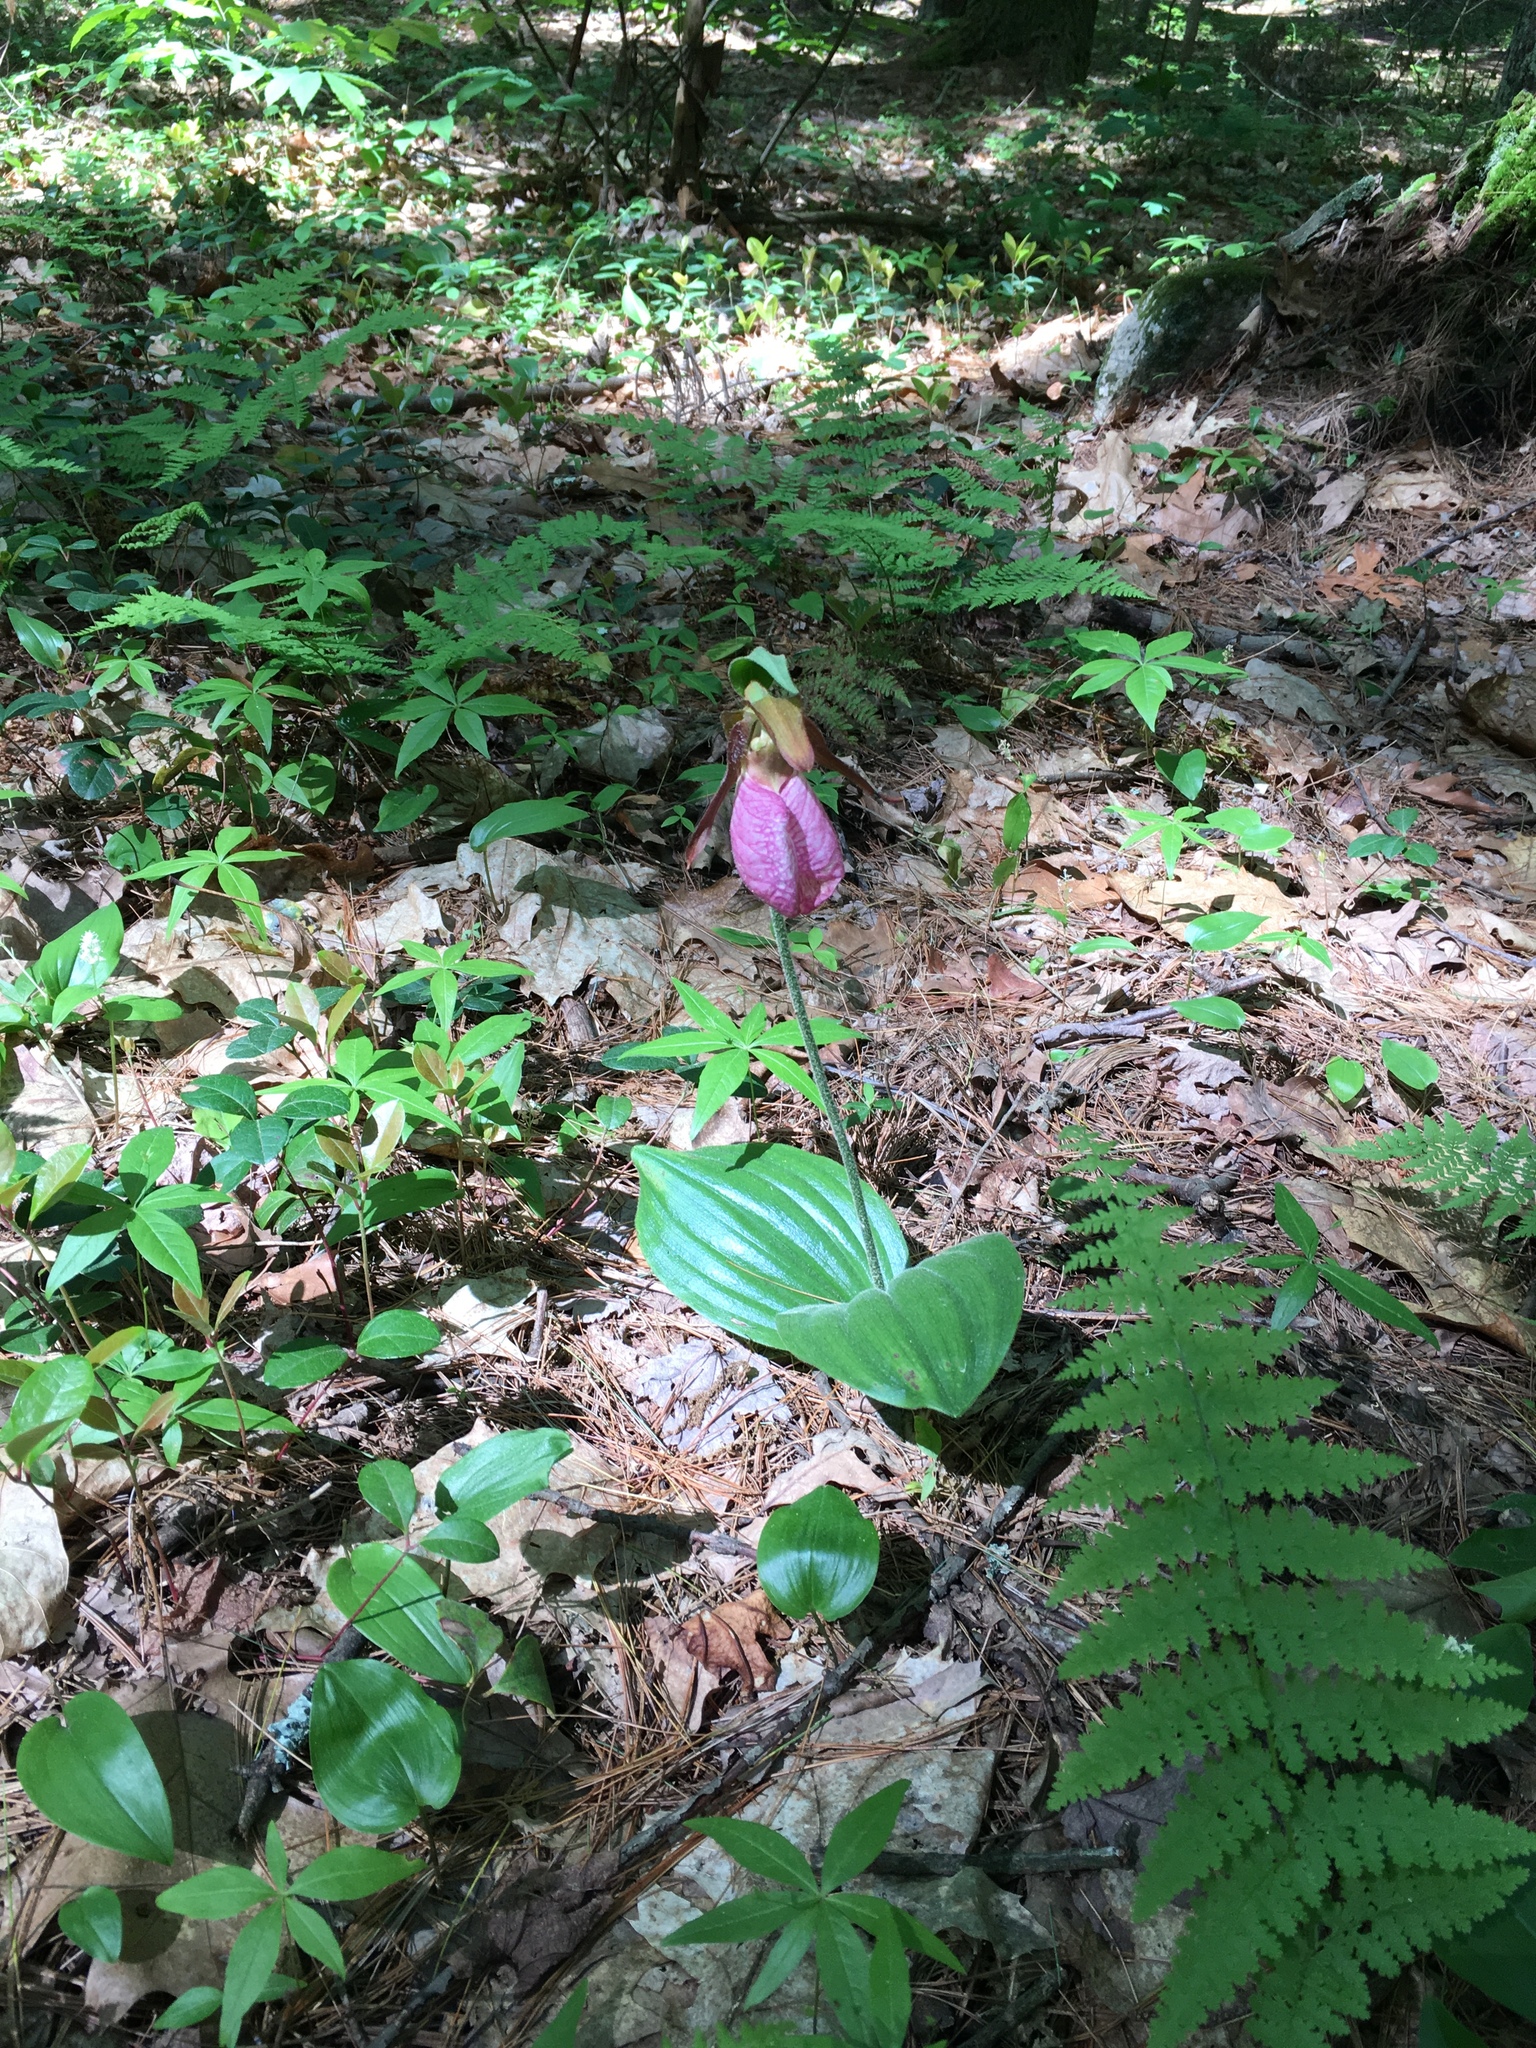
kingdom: Plantae
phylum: Tracheophyta
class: Liliopsida
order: Asparagales
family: Orchidaceae
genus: Cypripedium
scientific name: Cypripedium acaule
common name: Pink lady's-slipper
